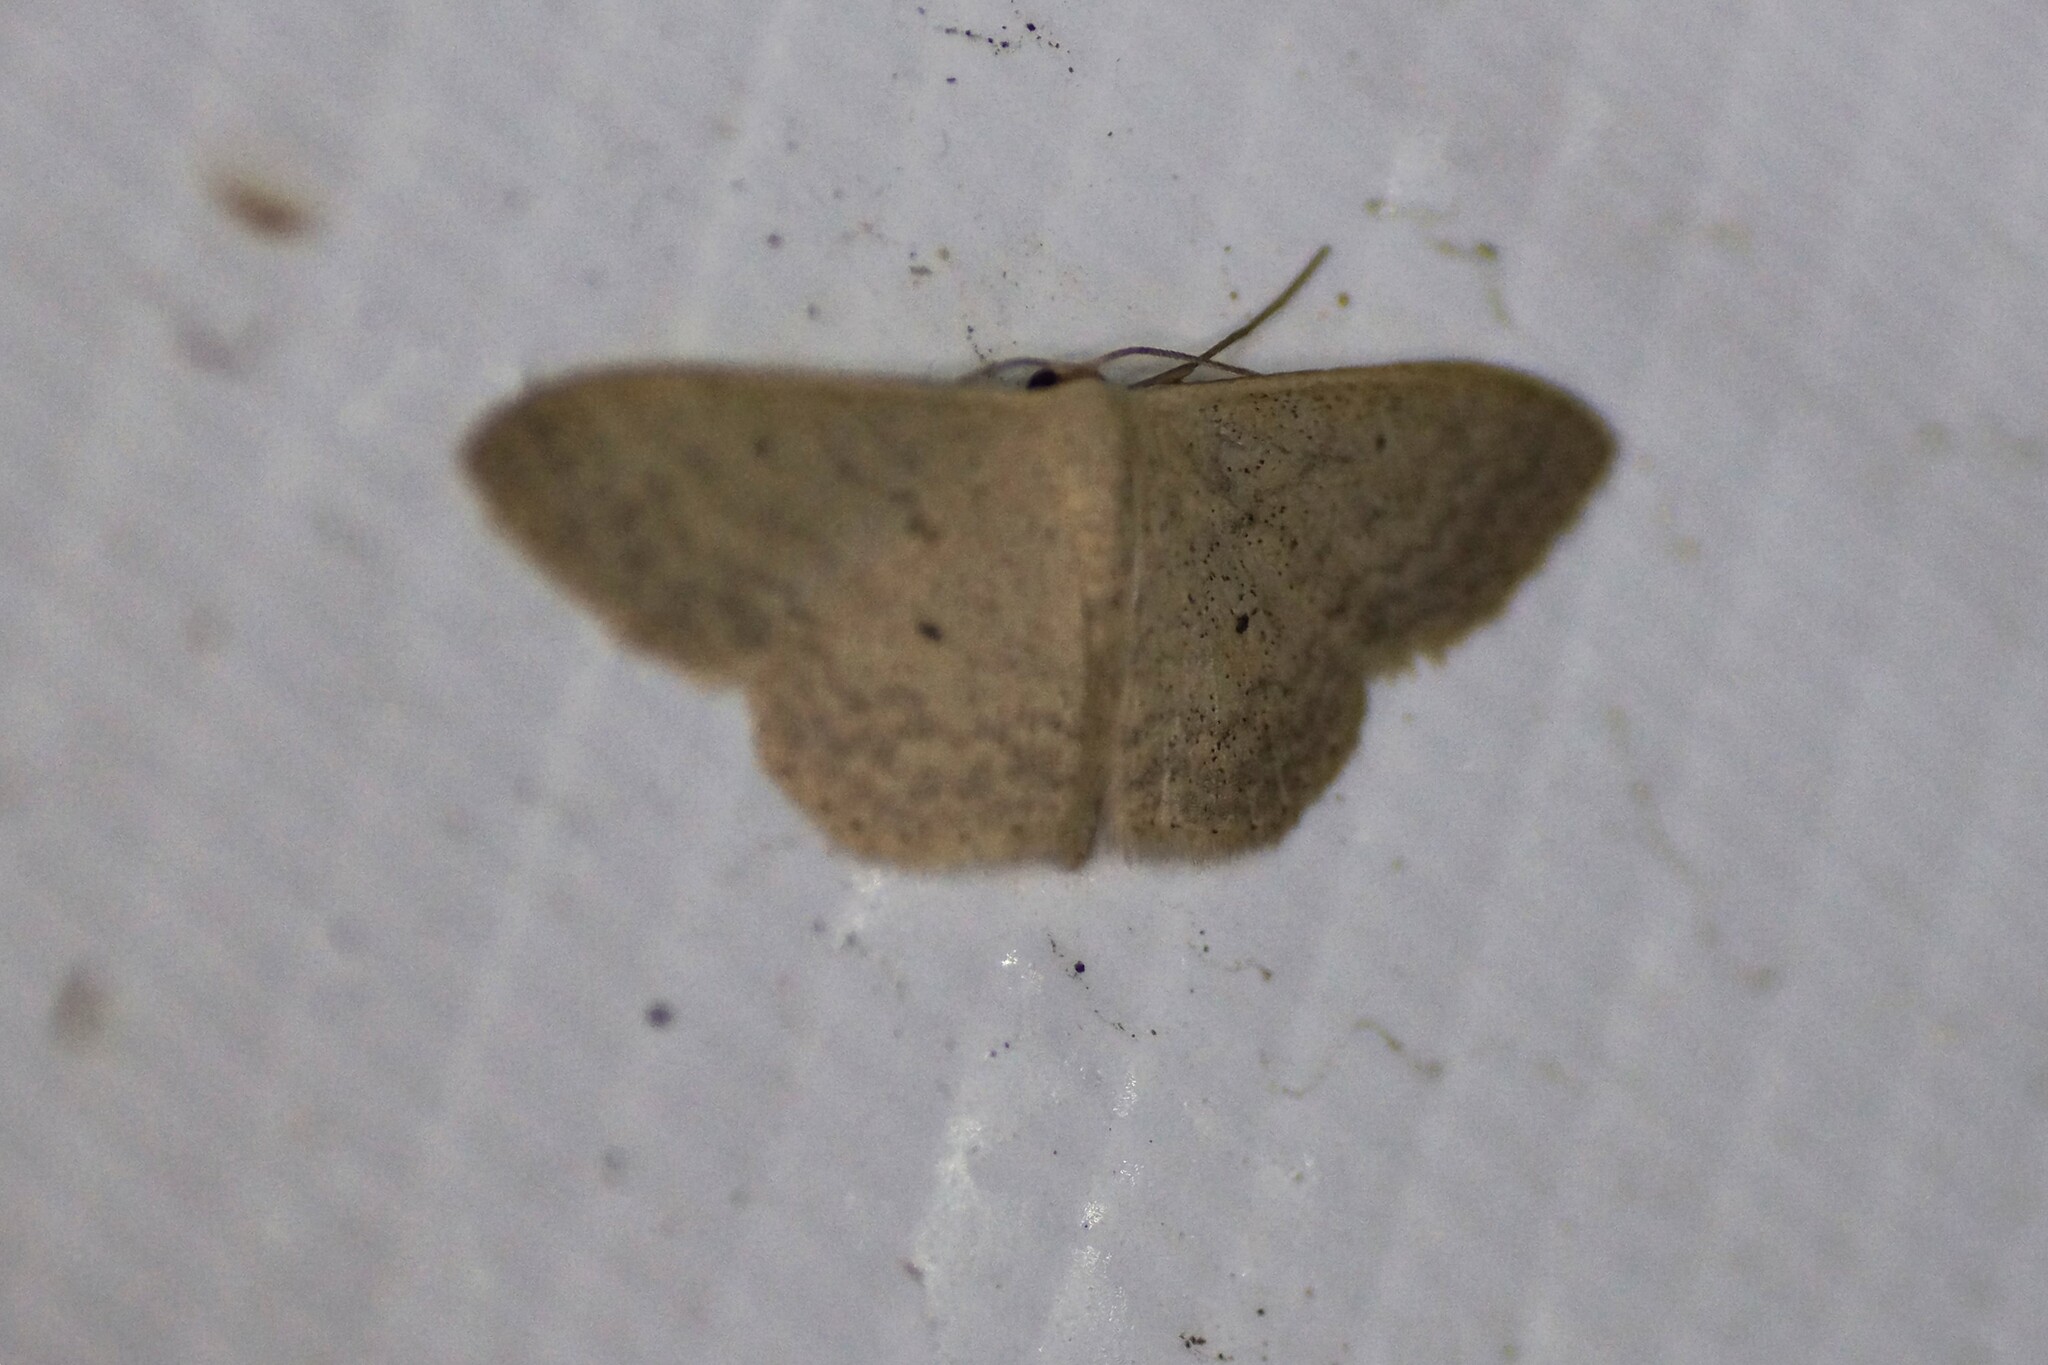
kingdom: Animalia
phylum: Arthropoda
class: Insecta
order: Lepidoptera
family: Geometridae
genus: Scopula
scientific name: Scopula optivata
